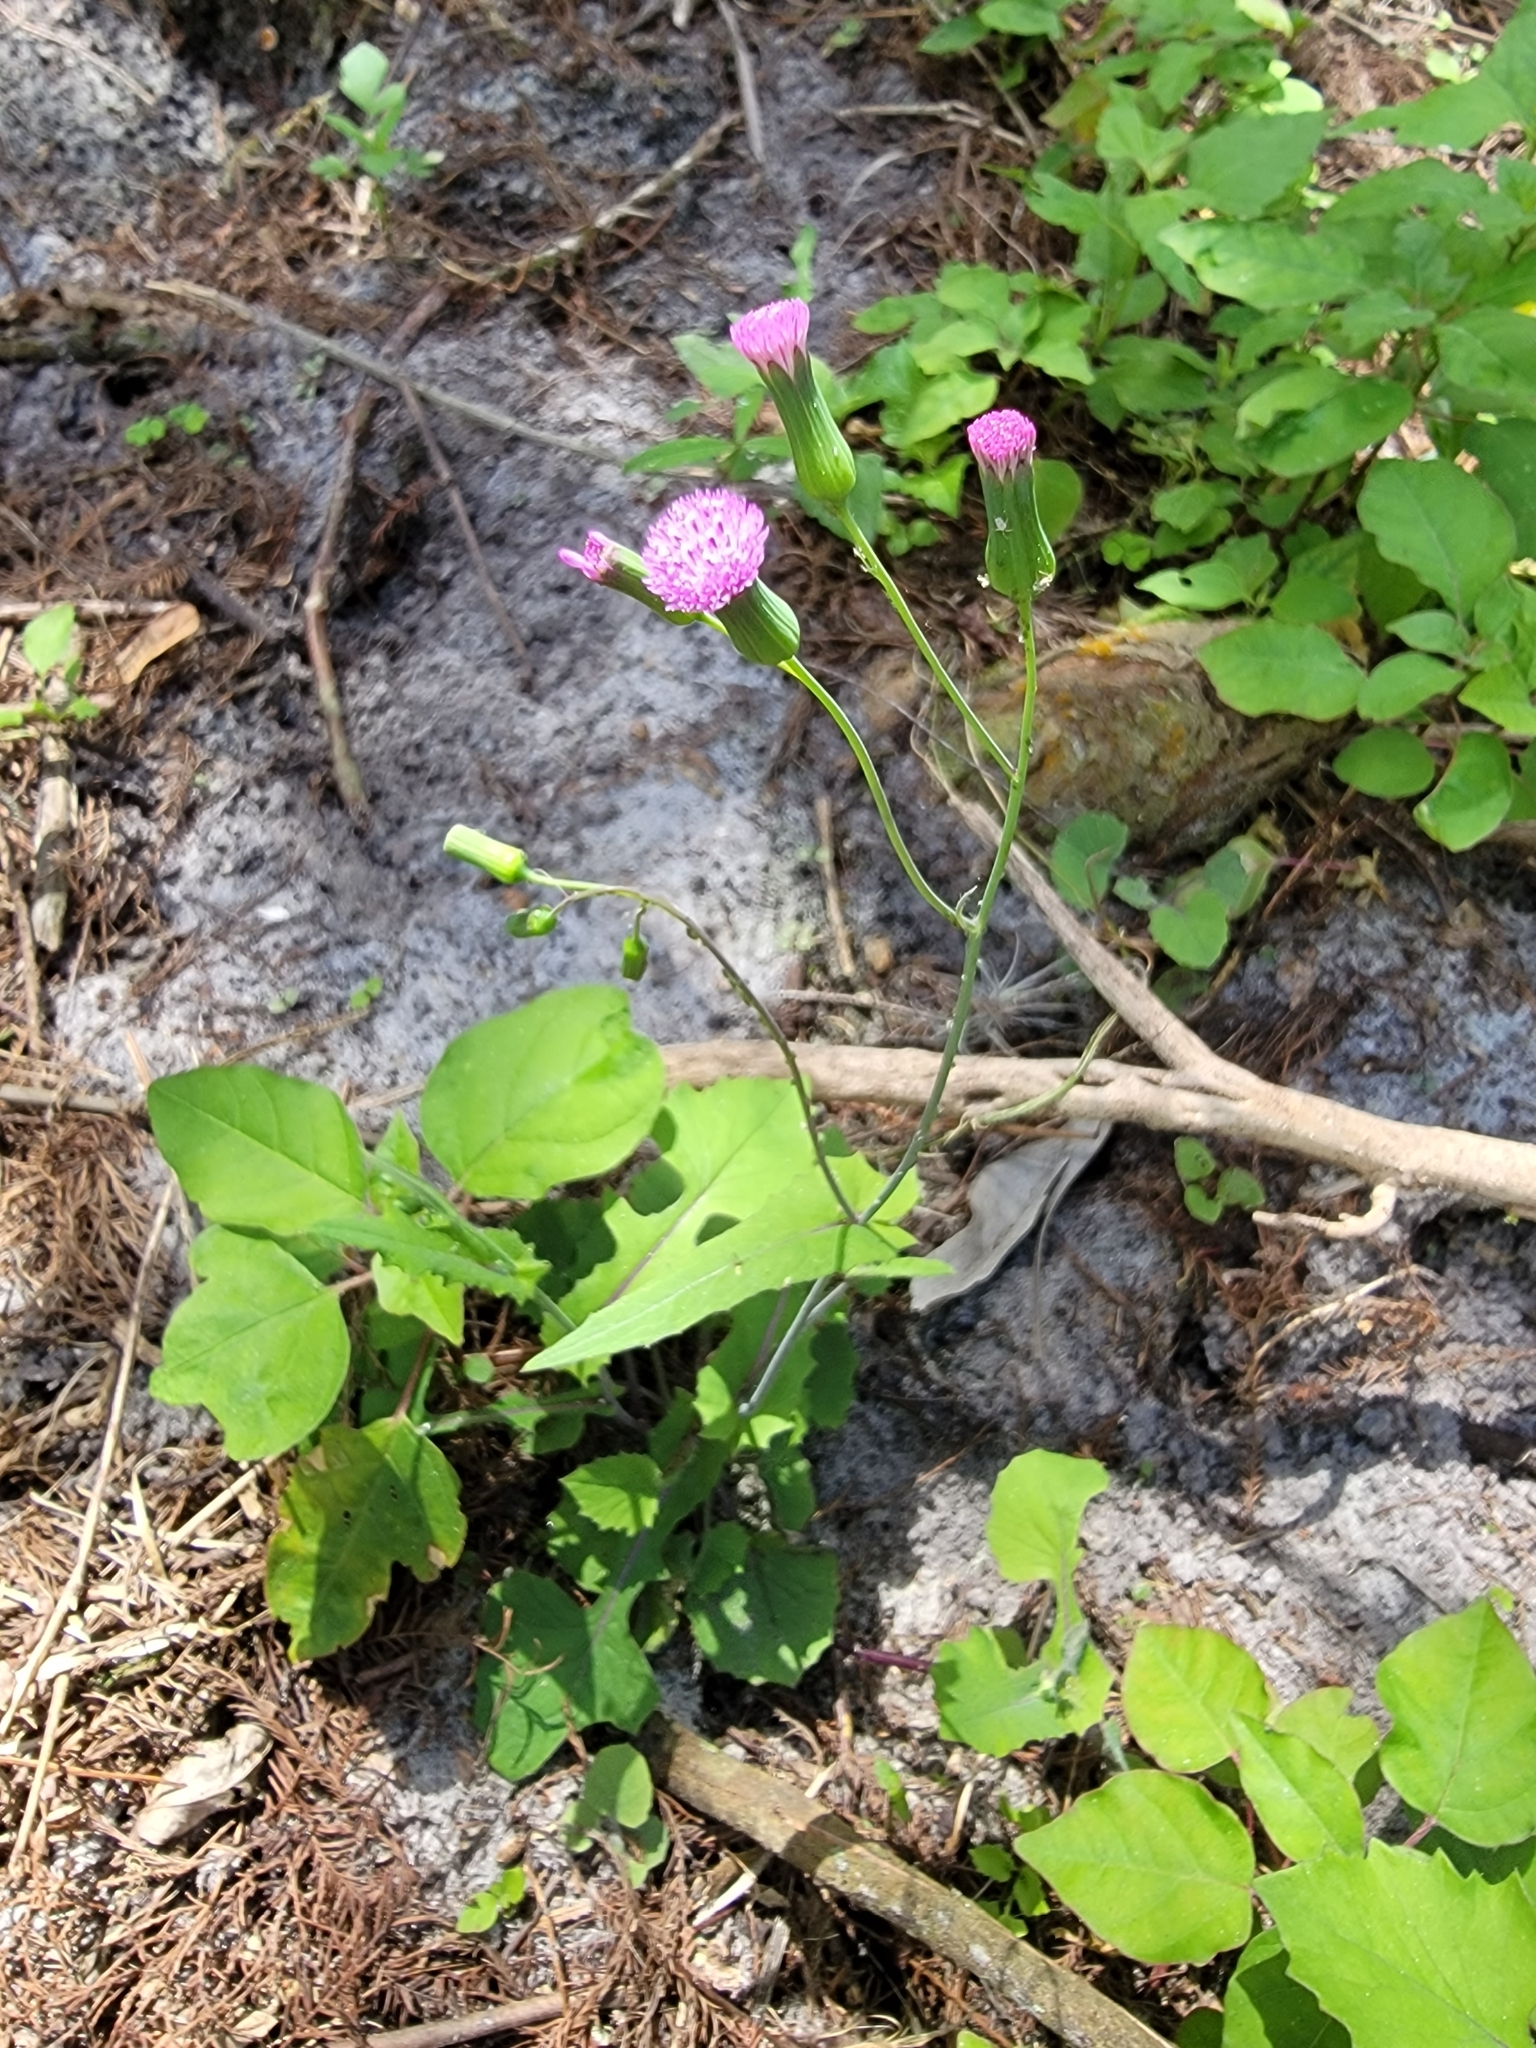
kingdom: Plantae
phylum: Tracheophyta
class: Magnoliopsida
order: Asterales
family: Asteraceae
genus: Emilia
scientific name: Emilia sonchifolia
